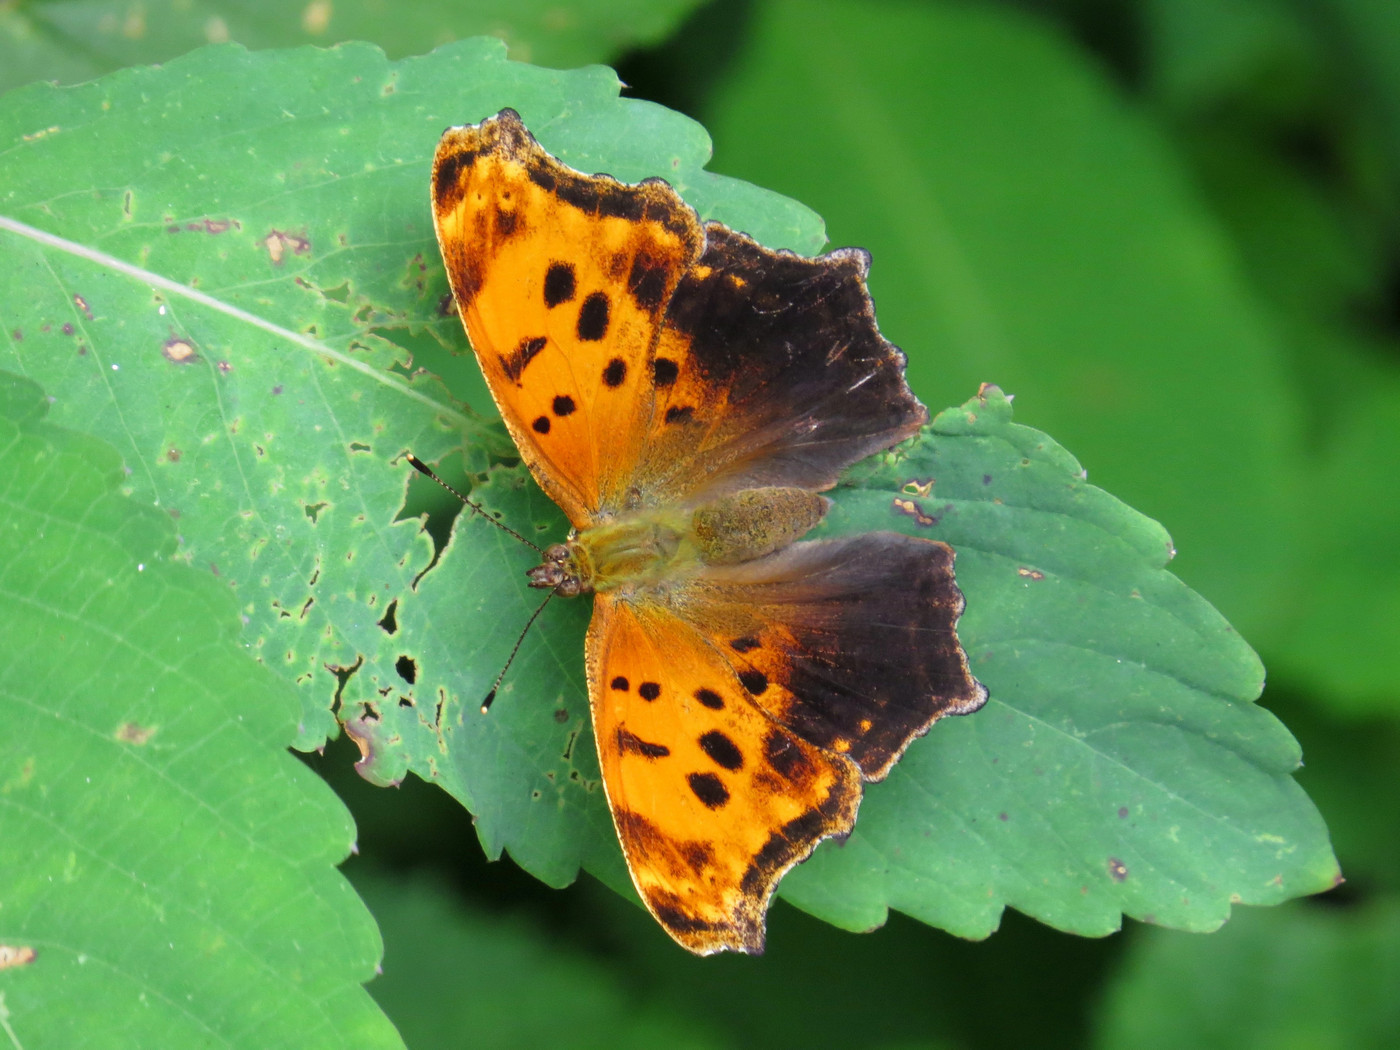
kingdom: Animalia
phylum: Arthropoda
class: Insecta
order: Lepidoptera
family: Nymphalidae
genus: Polygonia
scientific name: Polygonia comma
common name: Eastern comma
